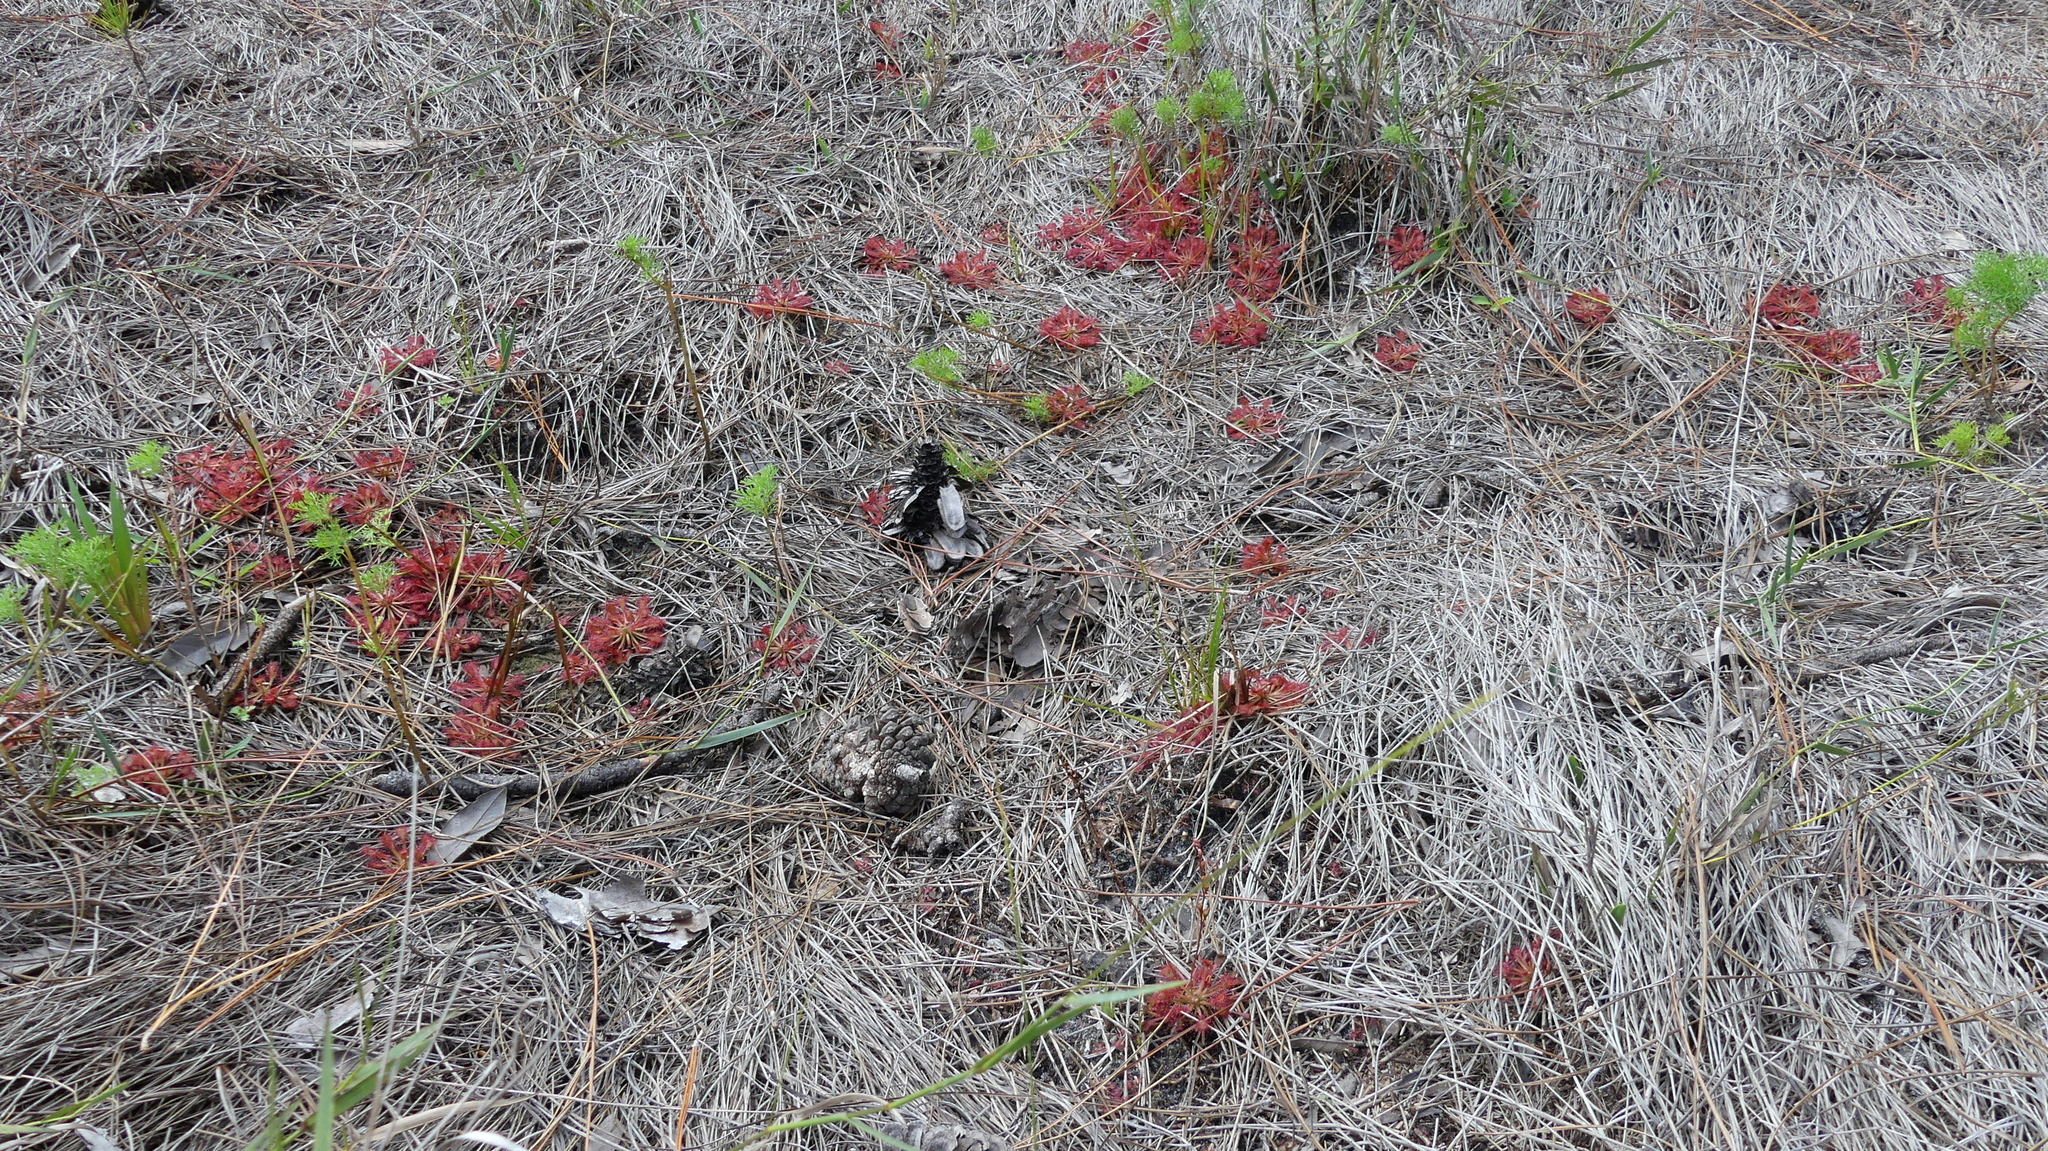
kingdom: Plantae
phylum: Tracheophyta
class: Magnoliopsida
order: Caryophyllales
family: Droseraceae
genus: Drosera
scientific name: Drosera capillaris
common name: Pink sundew
